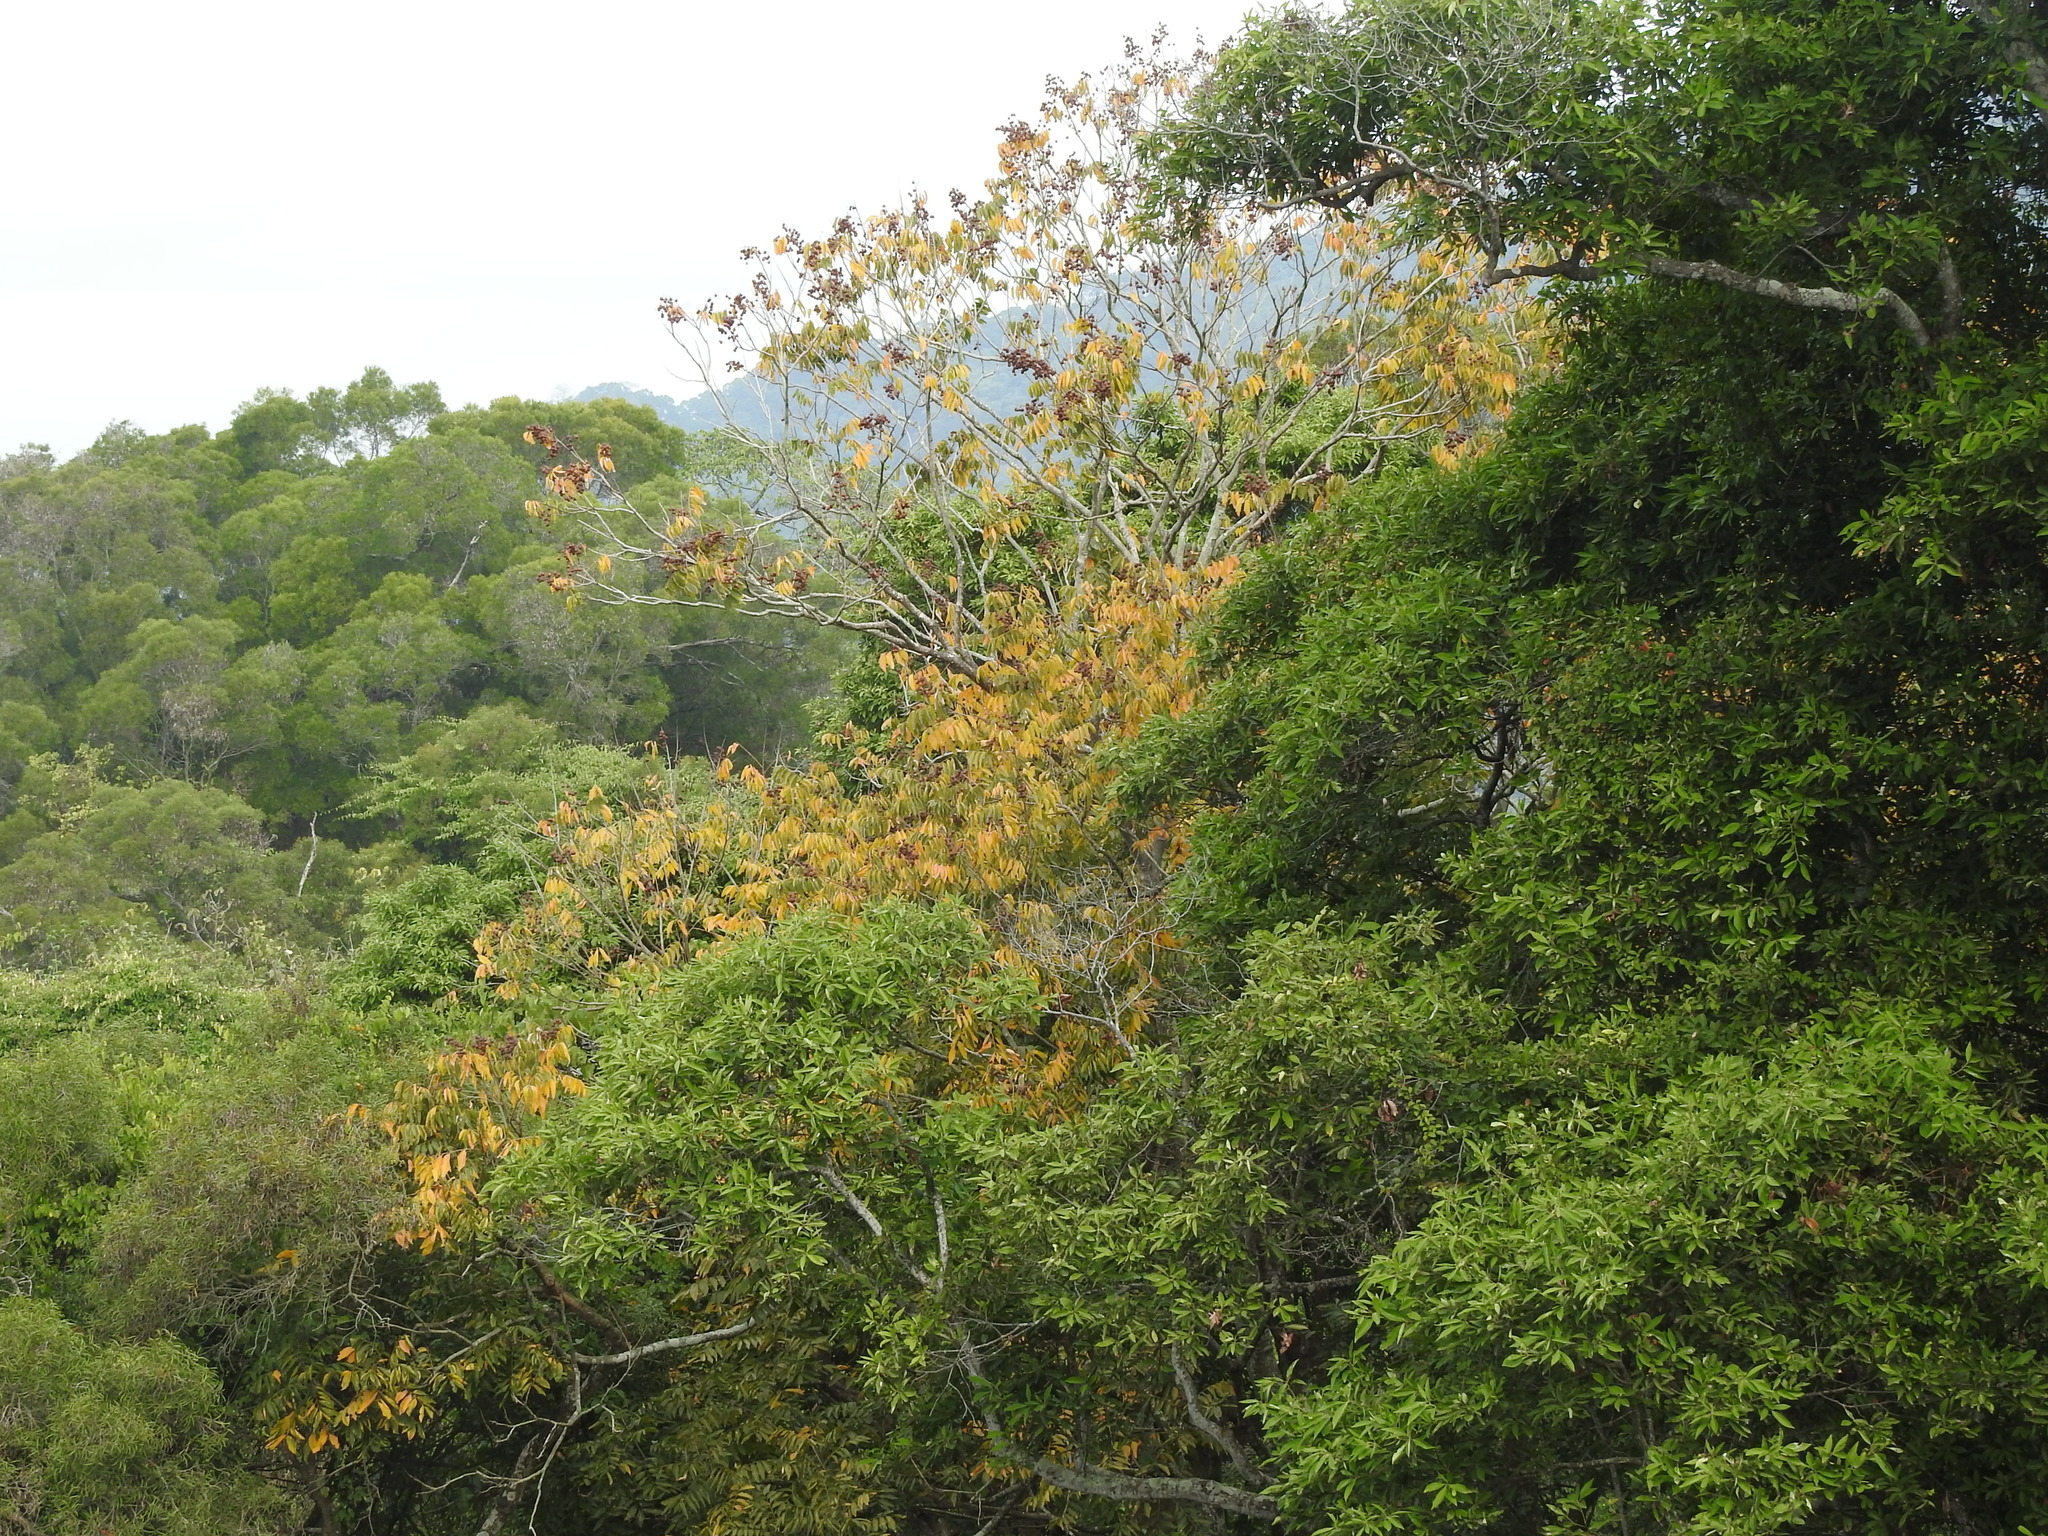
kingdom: Plantae
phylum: Tracheophyta
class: Magnoliopsida
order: Sapindales
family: Sapindaceae
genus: Sapindus
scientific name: Sapindus mukorossi
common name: Chinese soapberry
